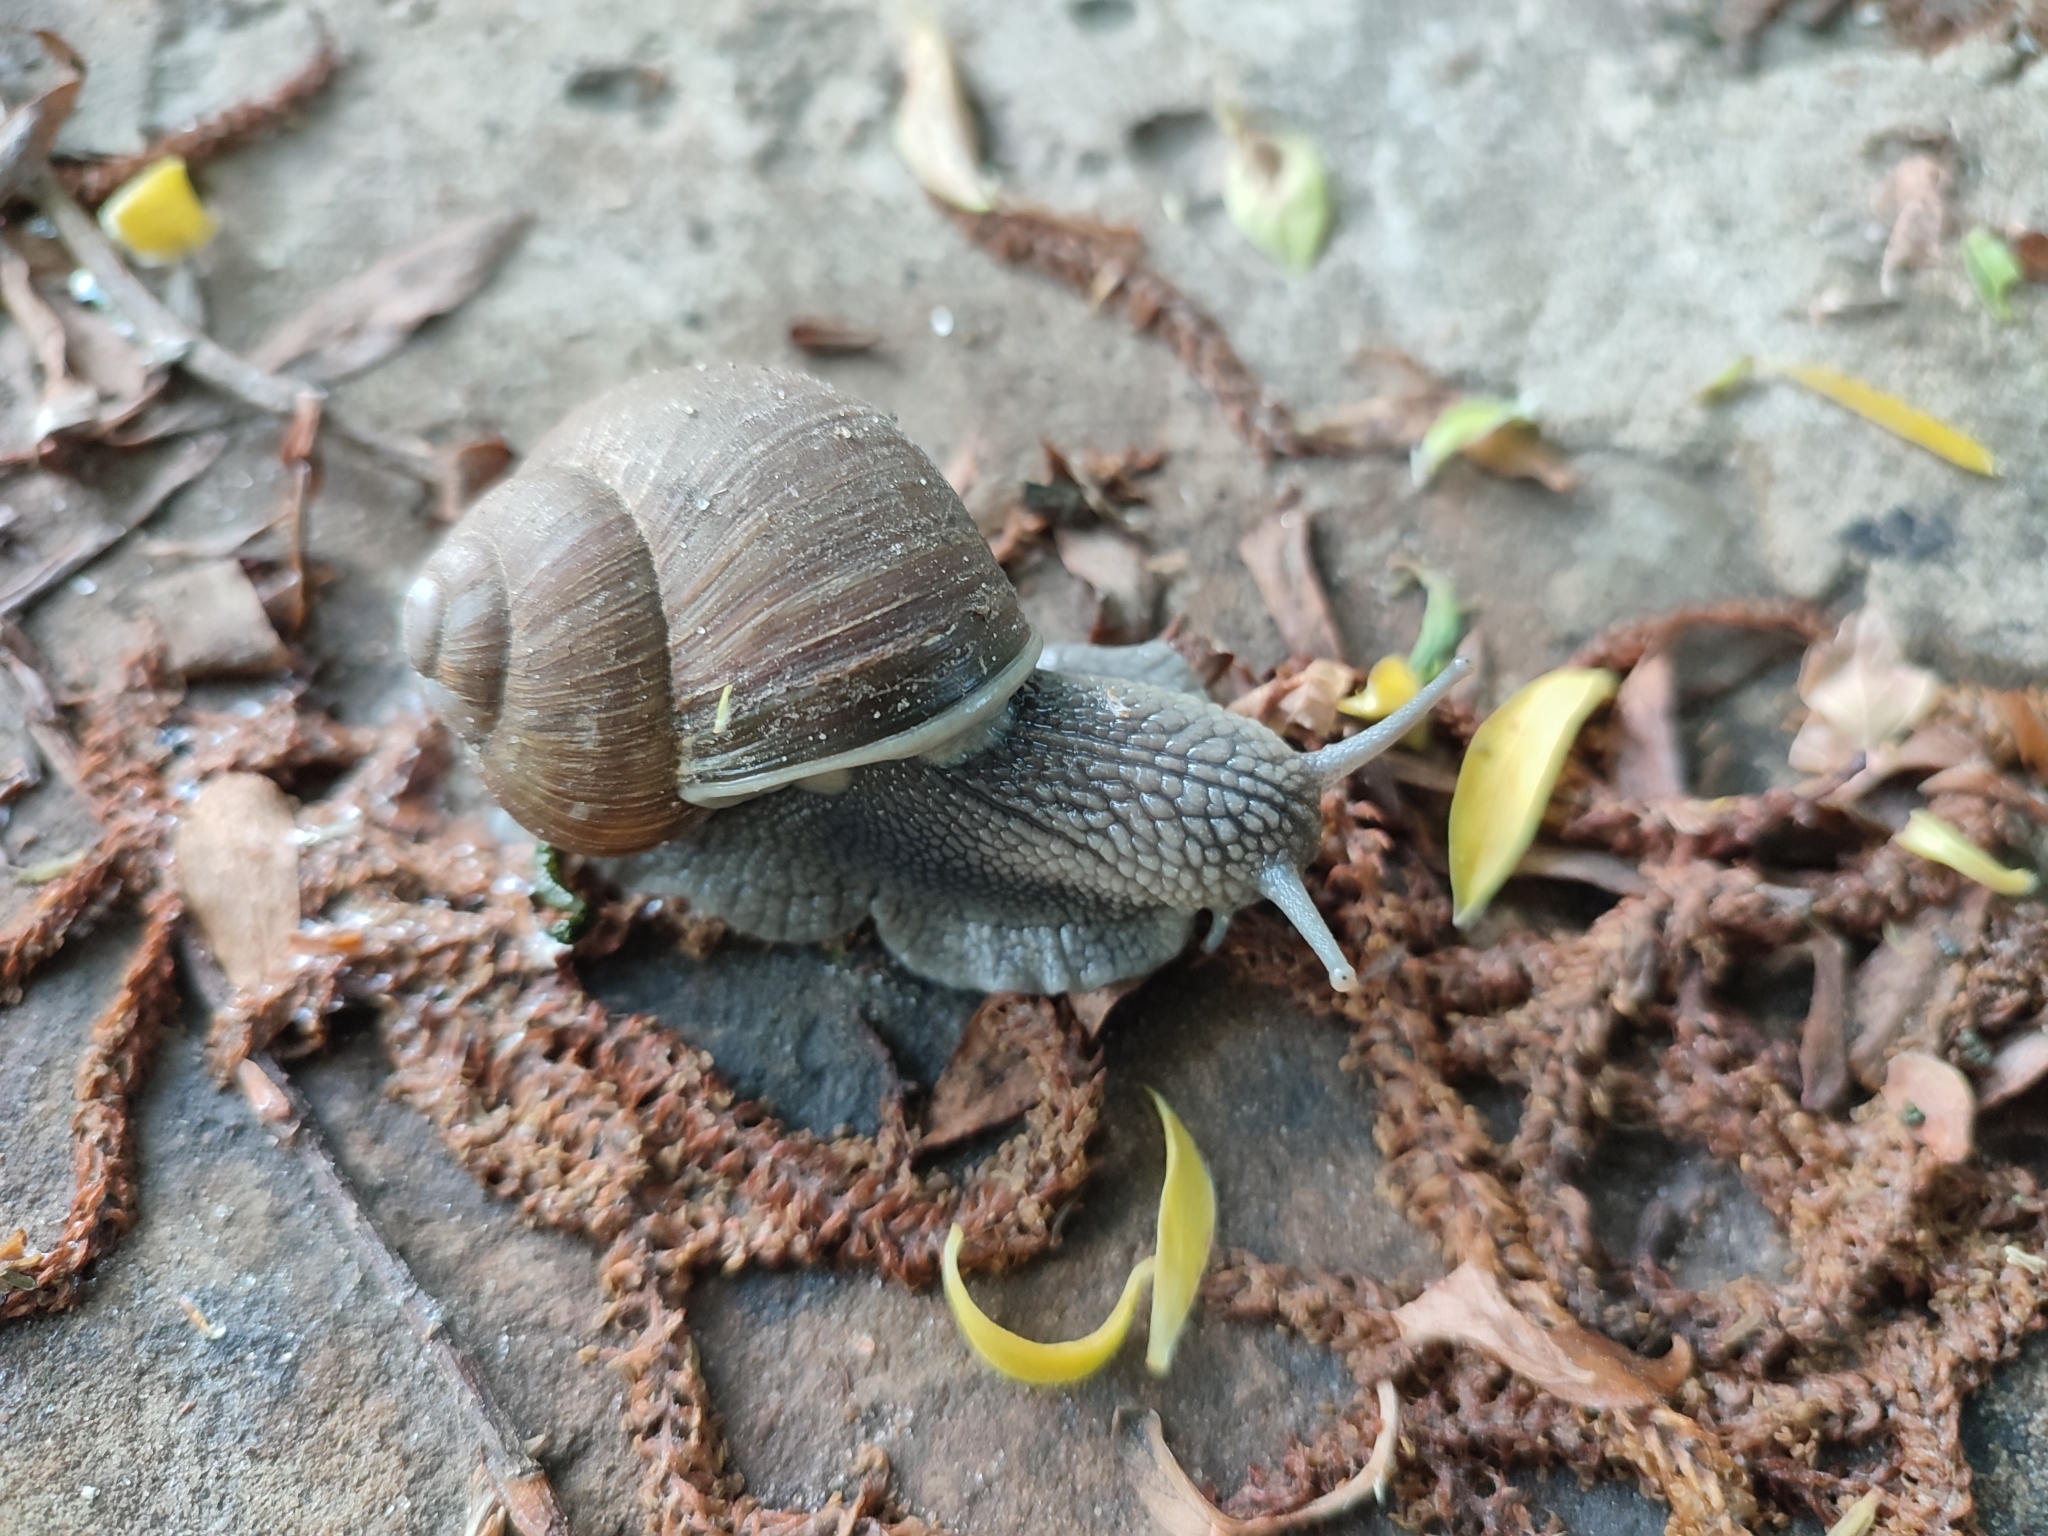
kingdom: Animalia
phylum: Mollusca
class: Gastropoda
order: Stylommatophora
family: Helicidae
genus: Helix
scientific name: Helix pomatia
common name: Roman snail
